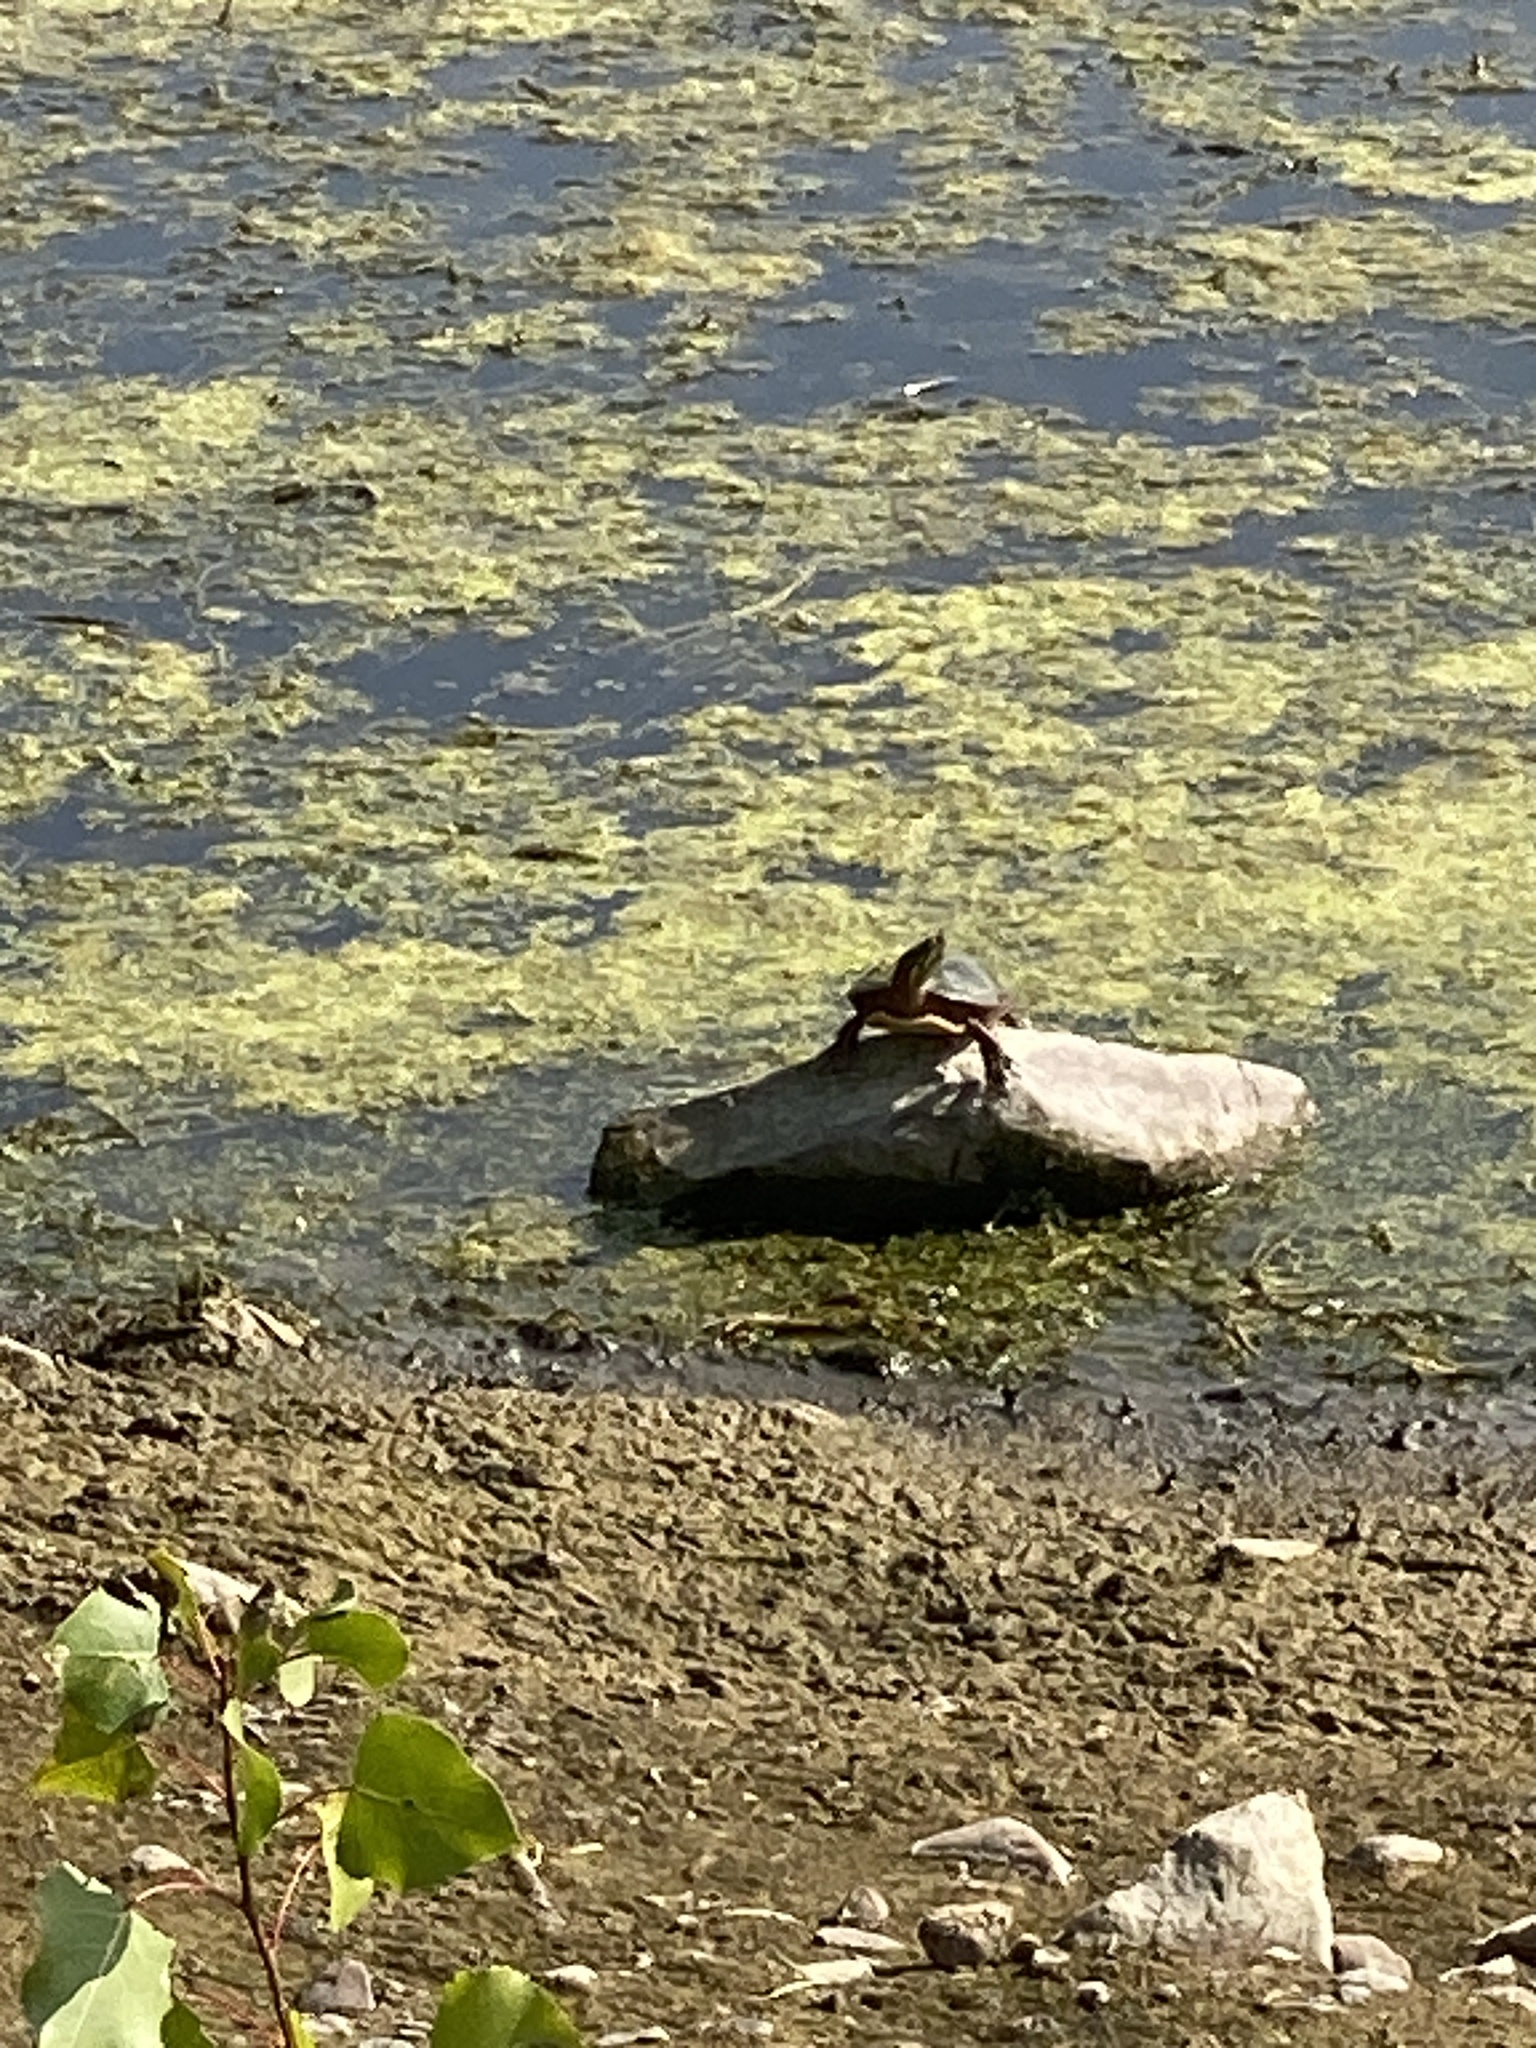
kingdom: Animalia
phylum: Chordata
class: Testudines
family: Emydidae
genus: Chrysemys
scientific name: Chrysemys picta
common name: Painted turtle
